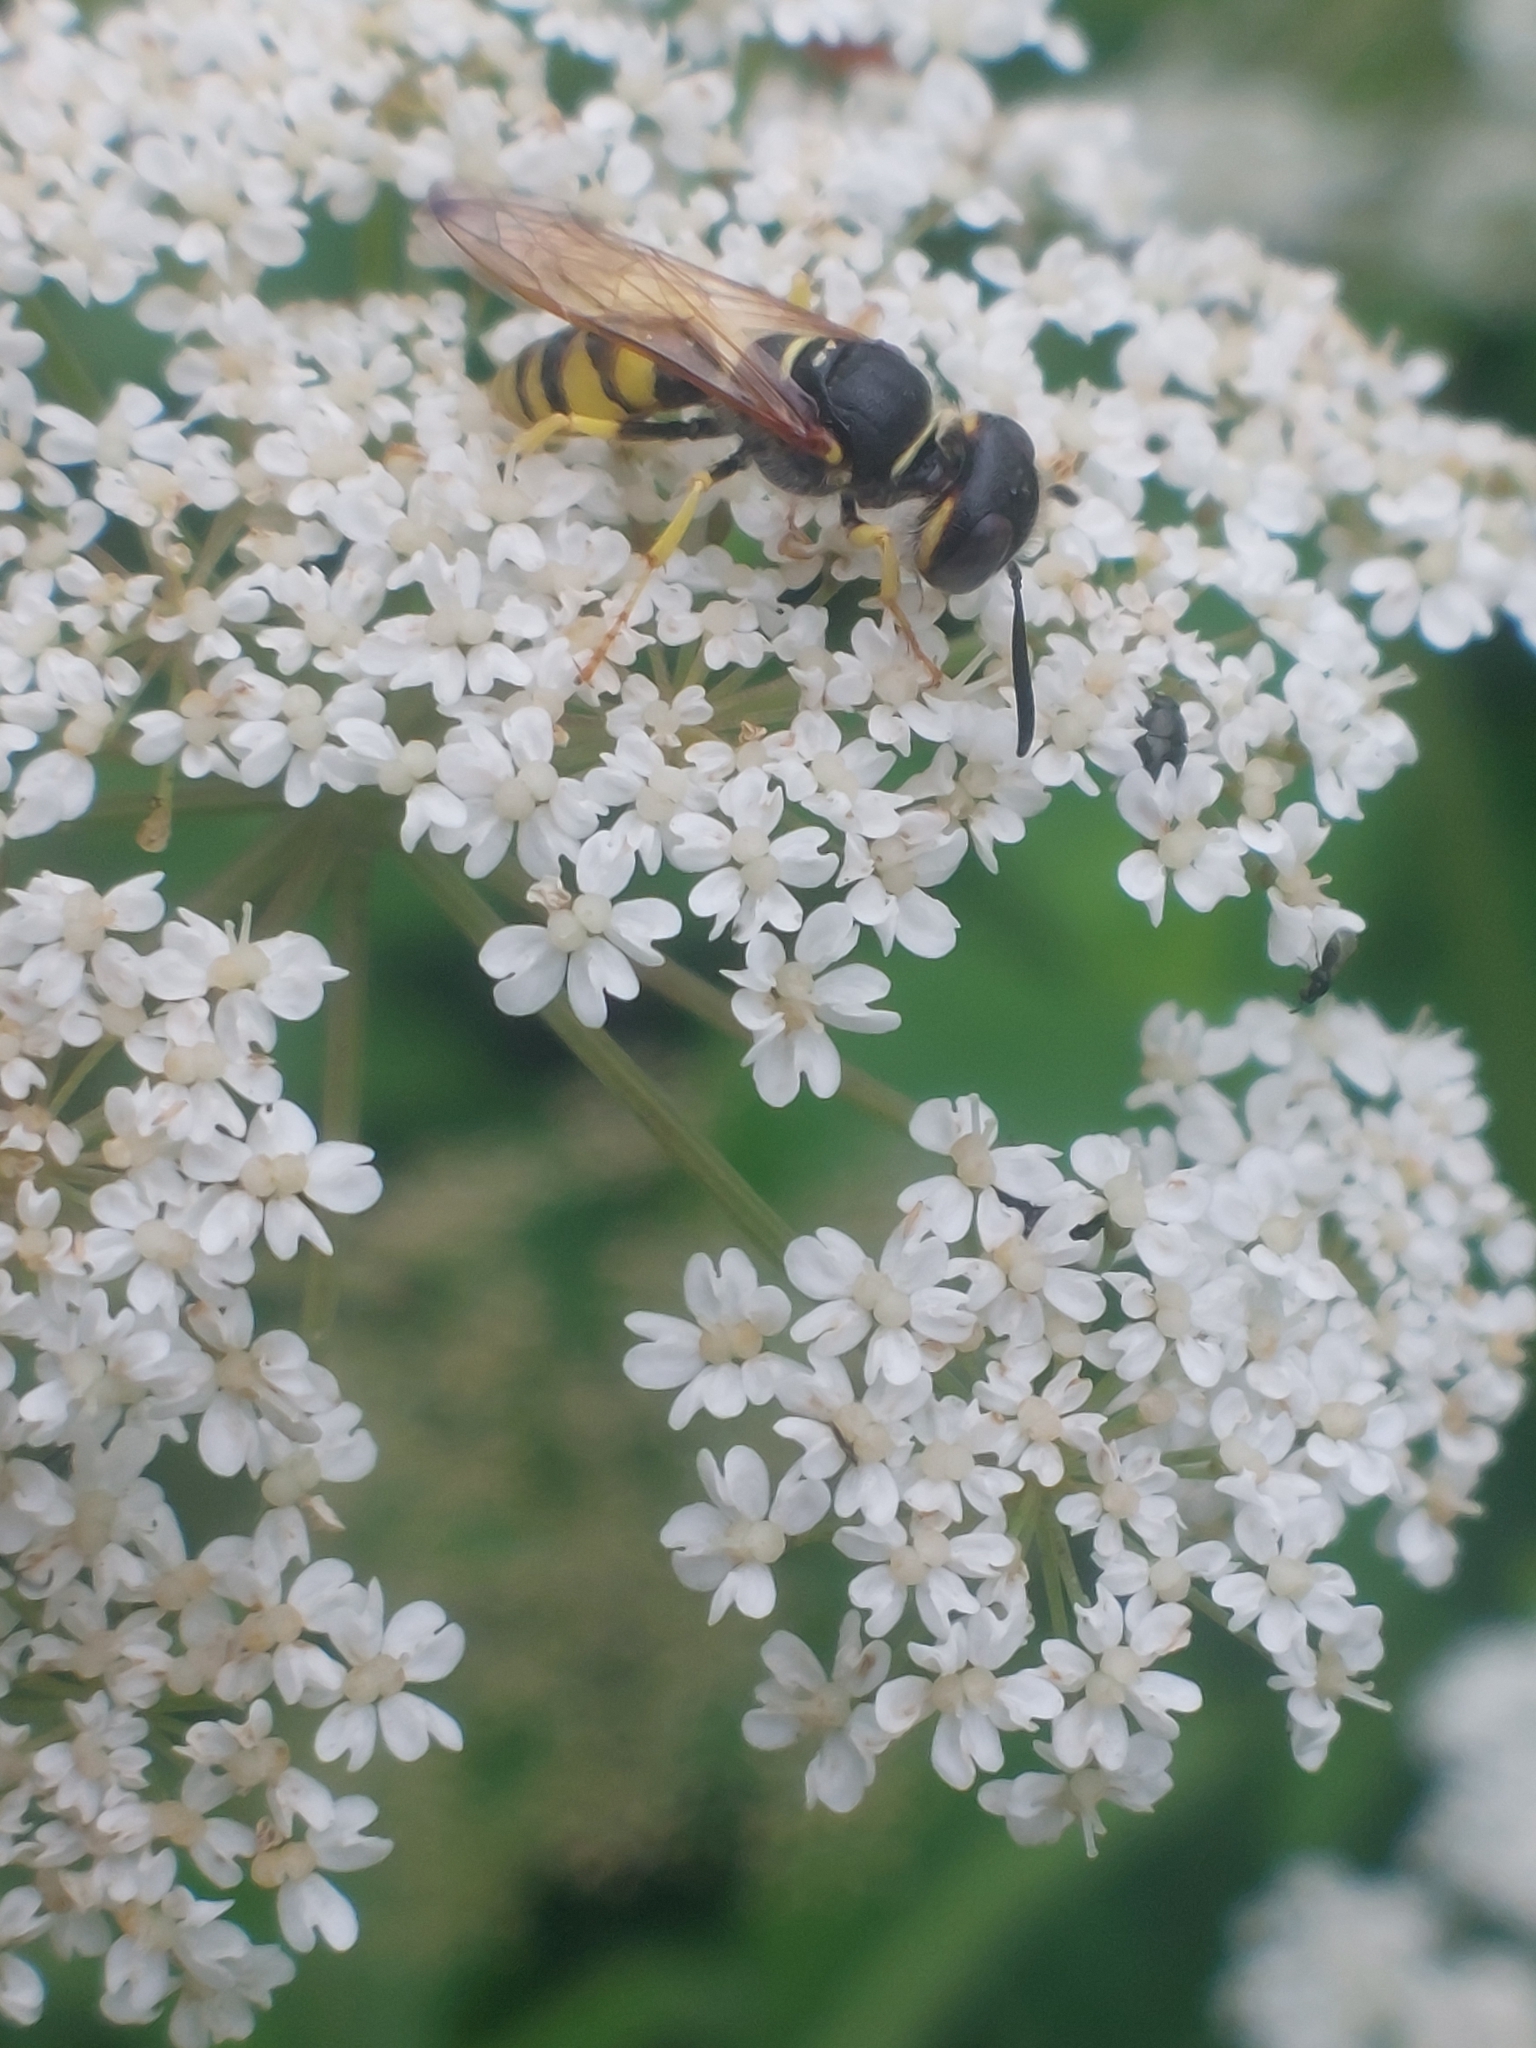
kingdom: Animalia
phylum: Arthropoda
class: Insecta
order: Hymenoptera
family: Crabronidae
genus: Philanthus
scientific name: Philanthus triangulum
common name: Bee wolf
